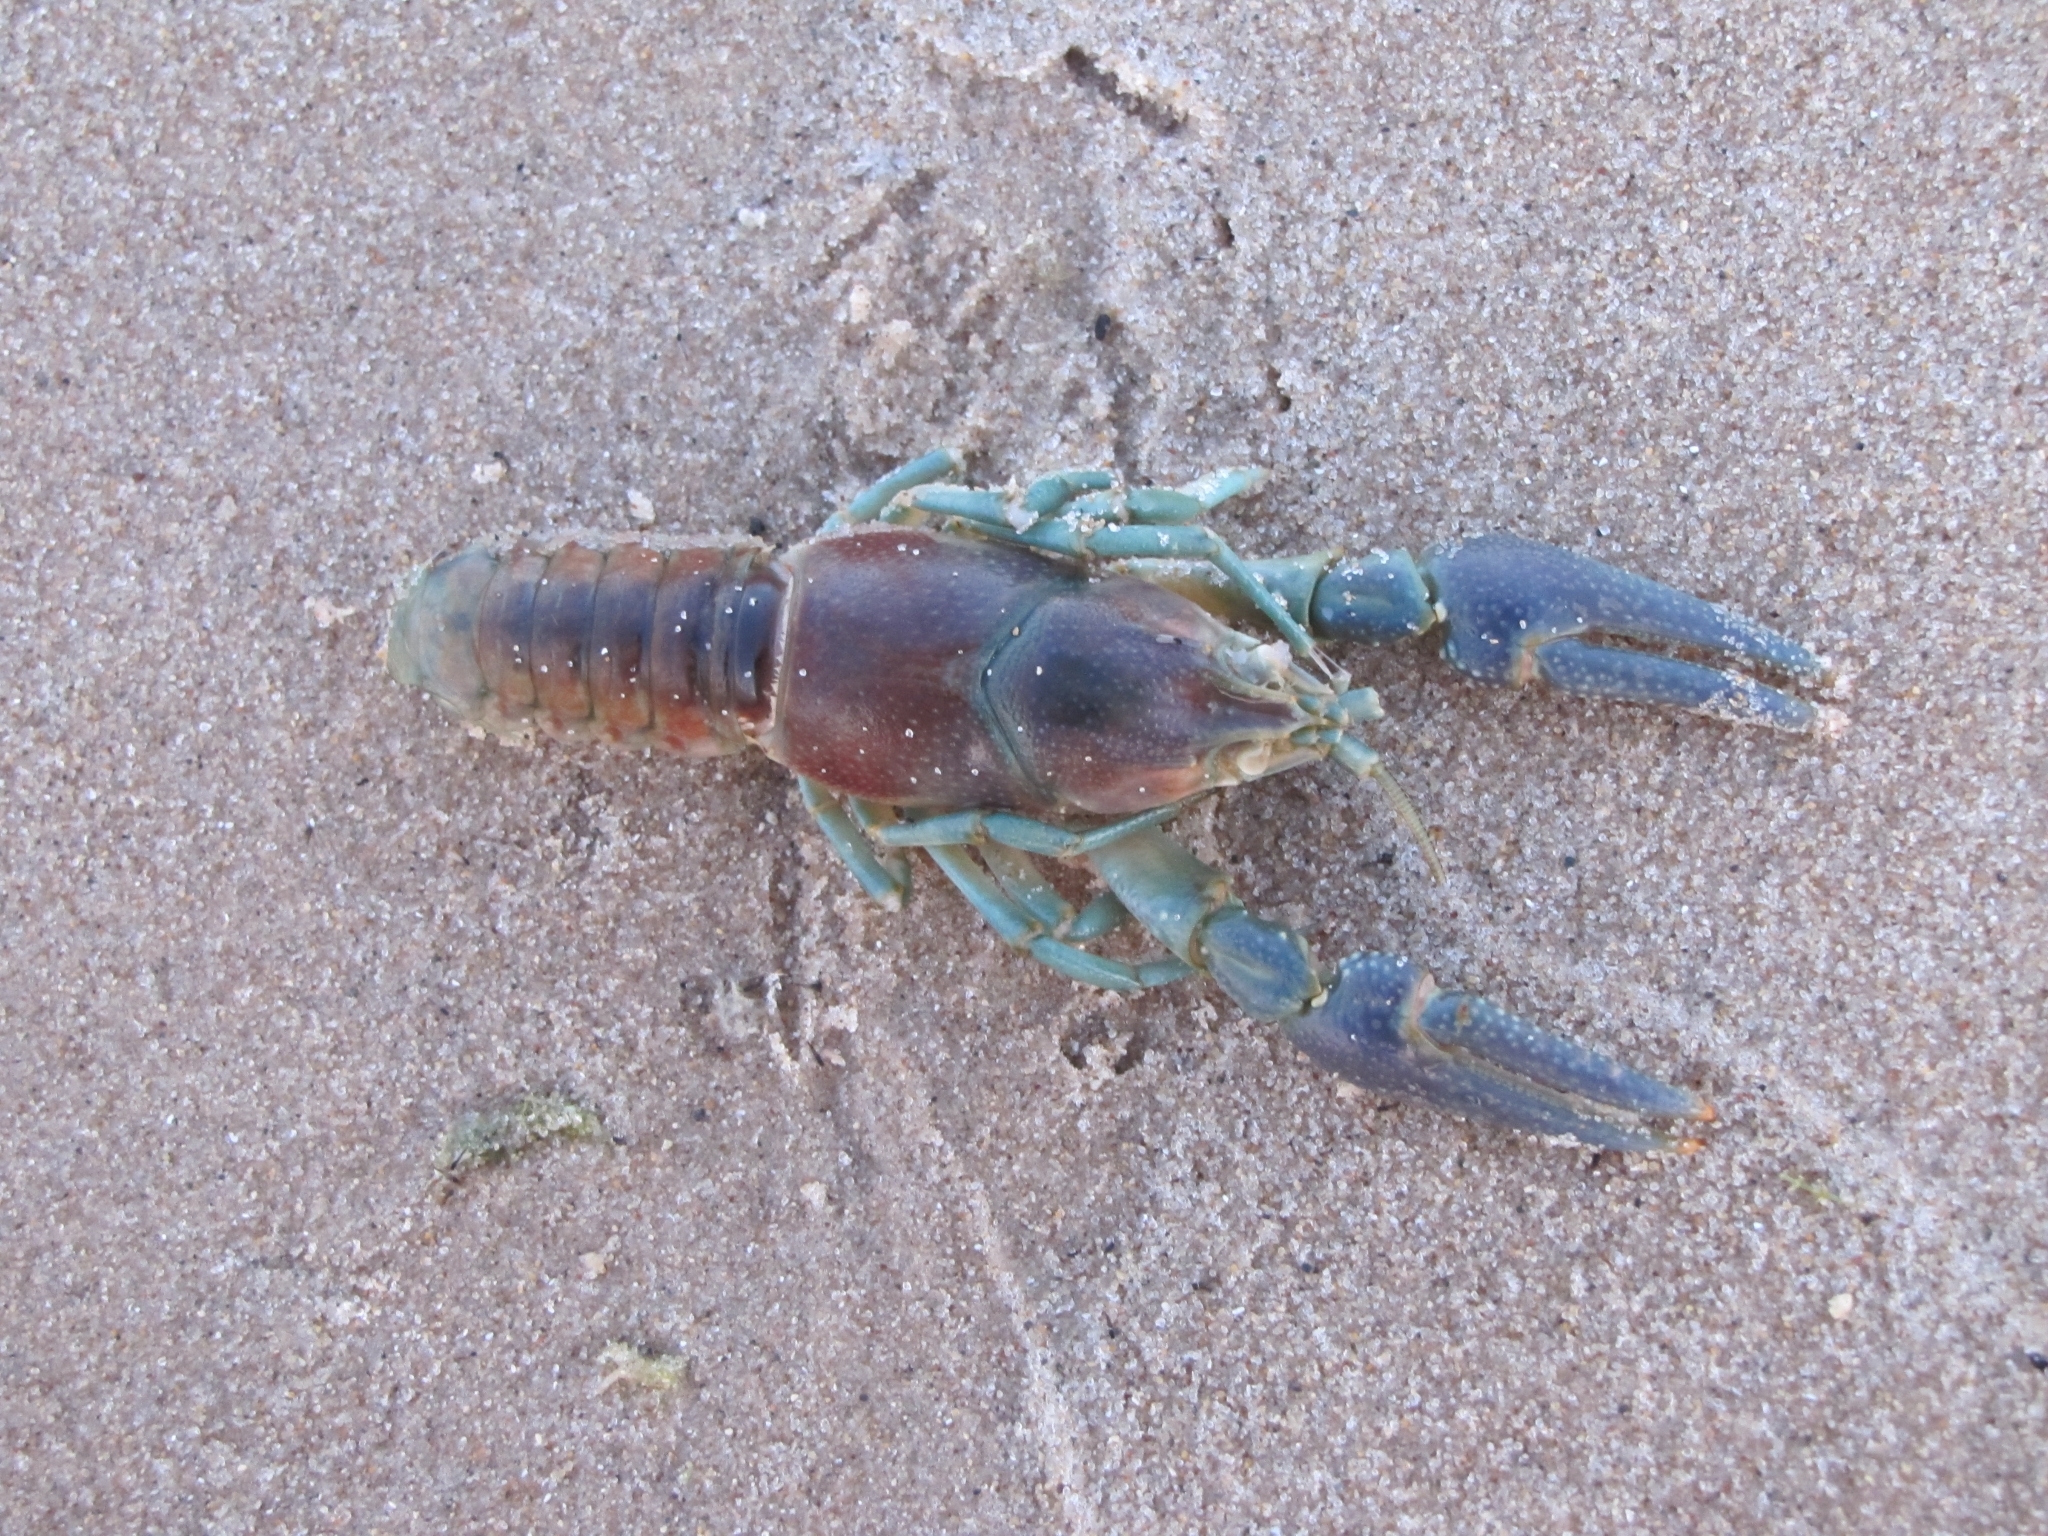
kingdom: Animalia
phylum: Arthropoda
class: Malacostraca
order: Decapoda
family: Cambaridae
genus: Faxonius
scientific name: Faxonius rusticus
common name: Rusty crayfish
